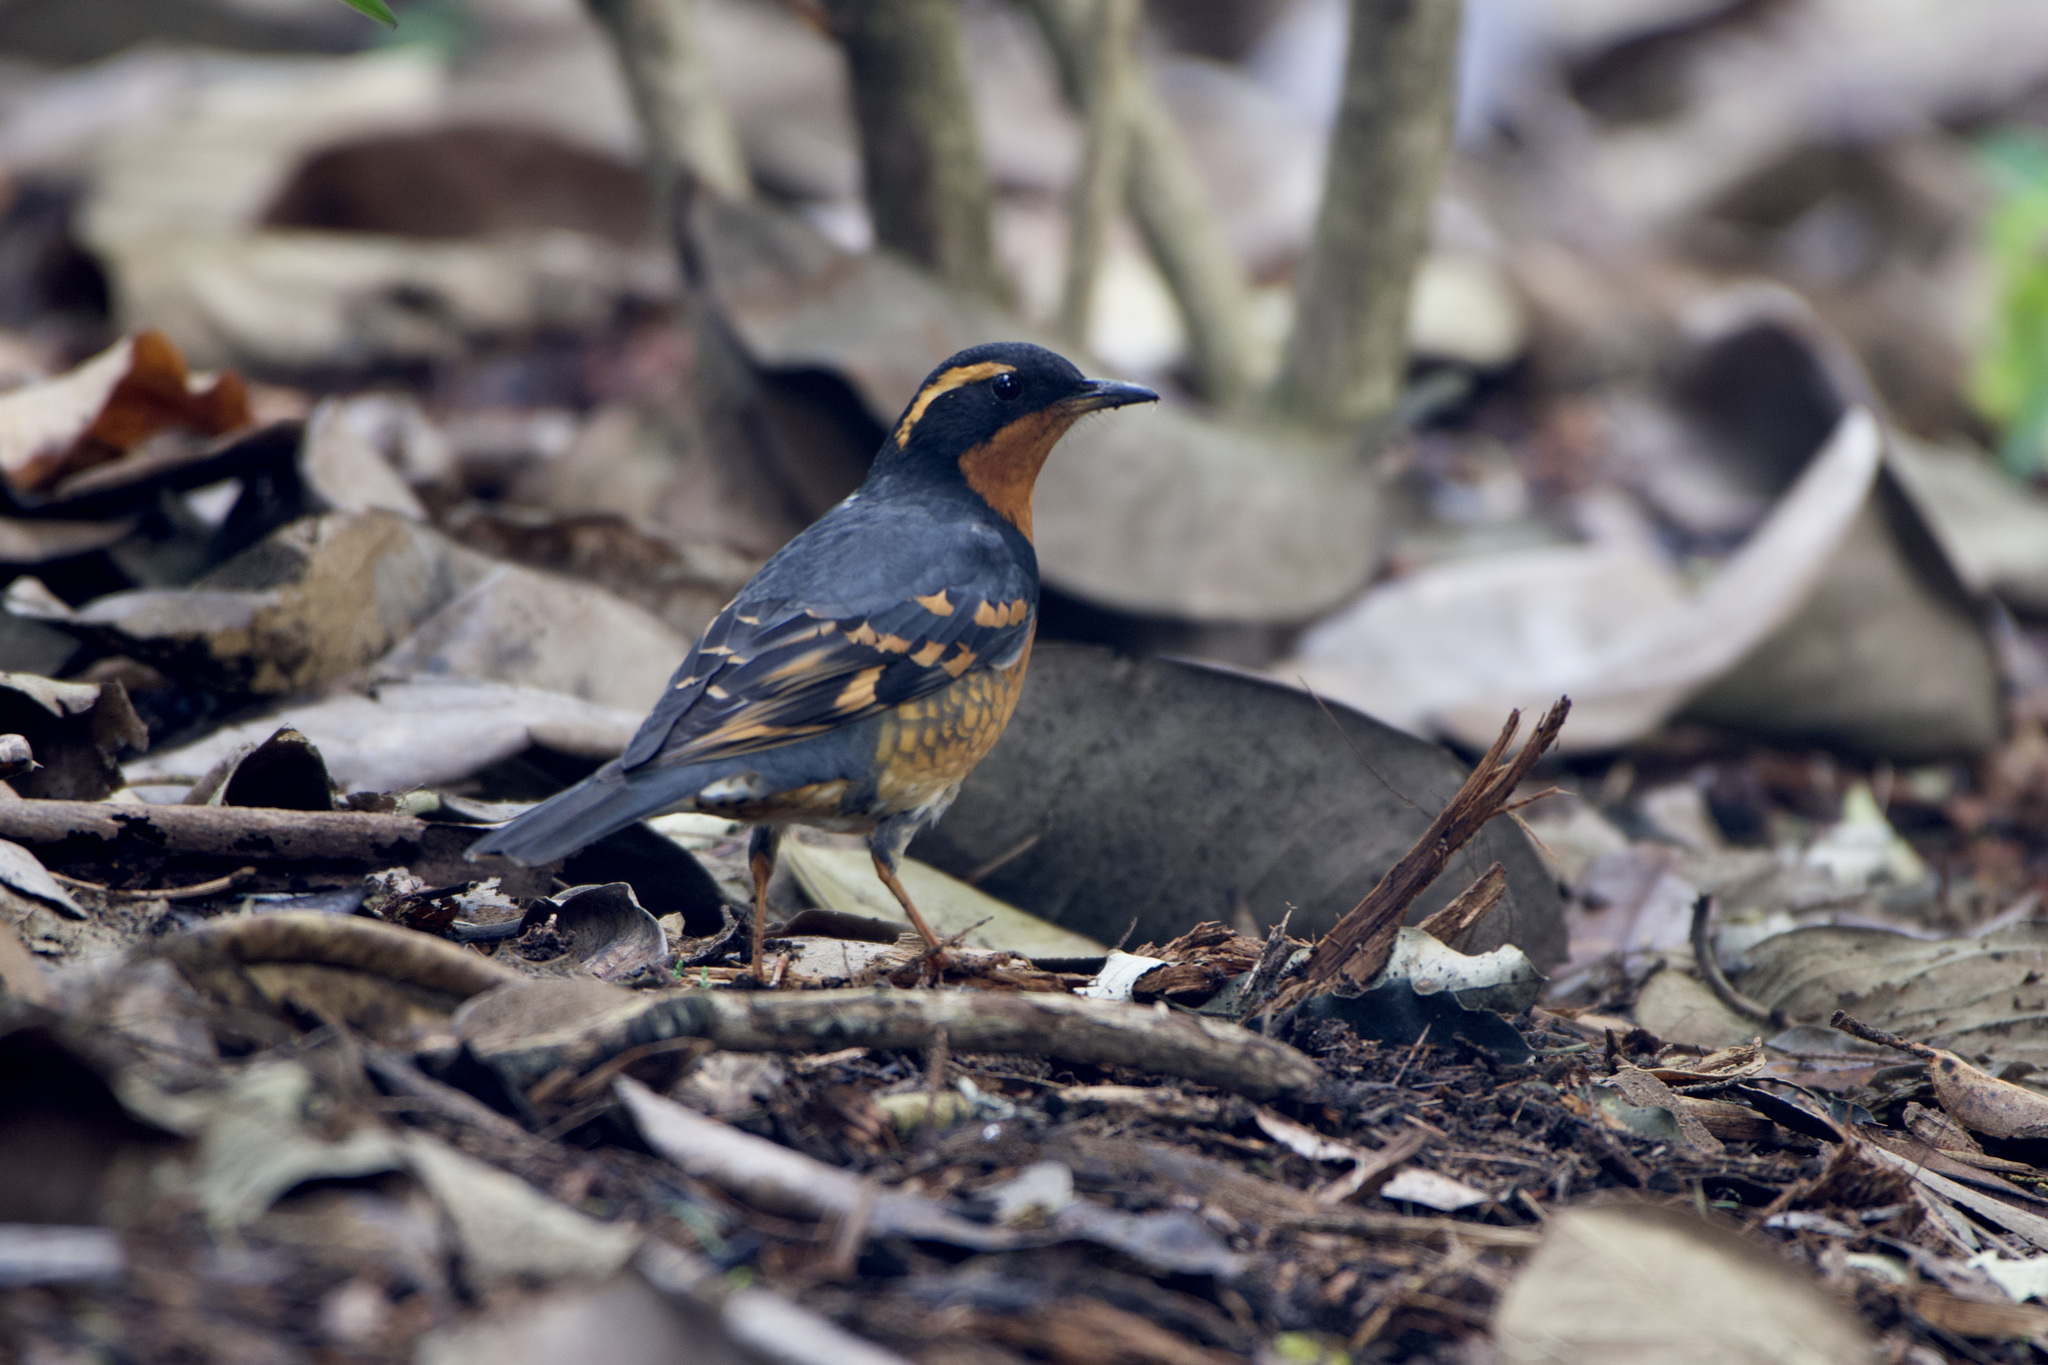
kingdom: Animalia
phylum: Chordata
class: Aves
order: Passeriformes
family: Turdidae
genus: Ixoreus
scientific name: Ixoreus naevius
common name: Varied thrush
